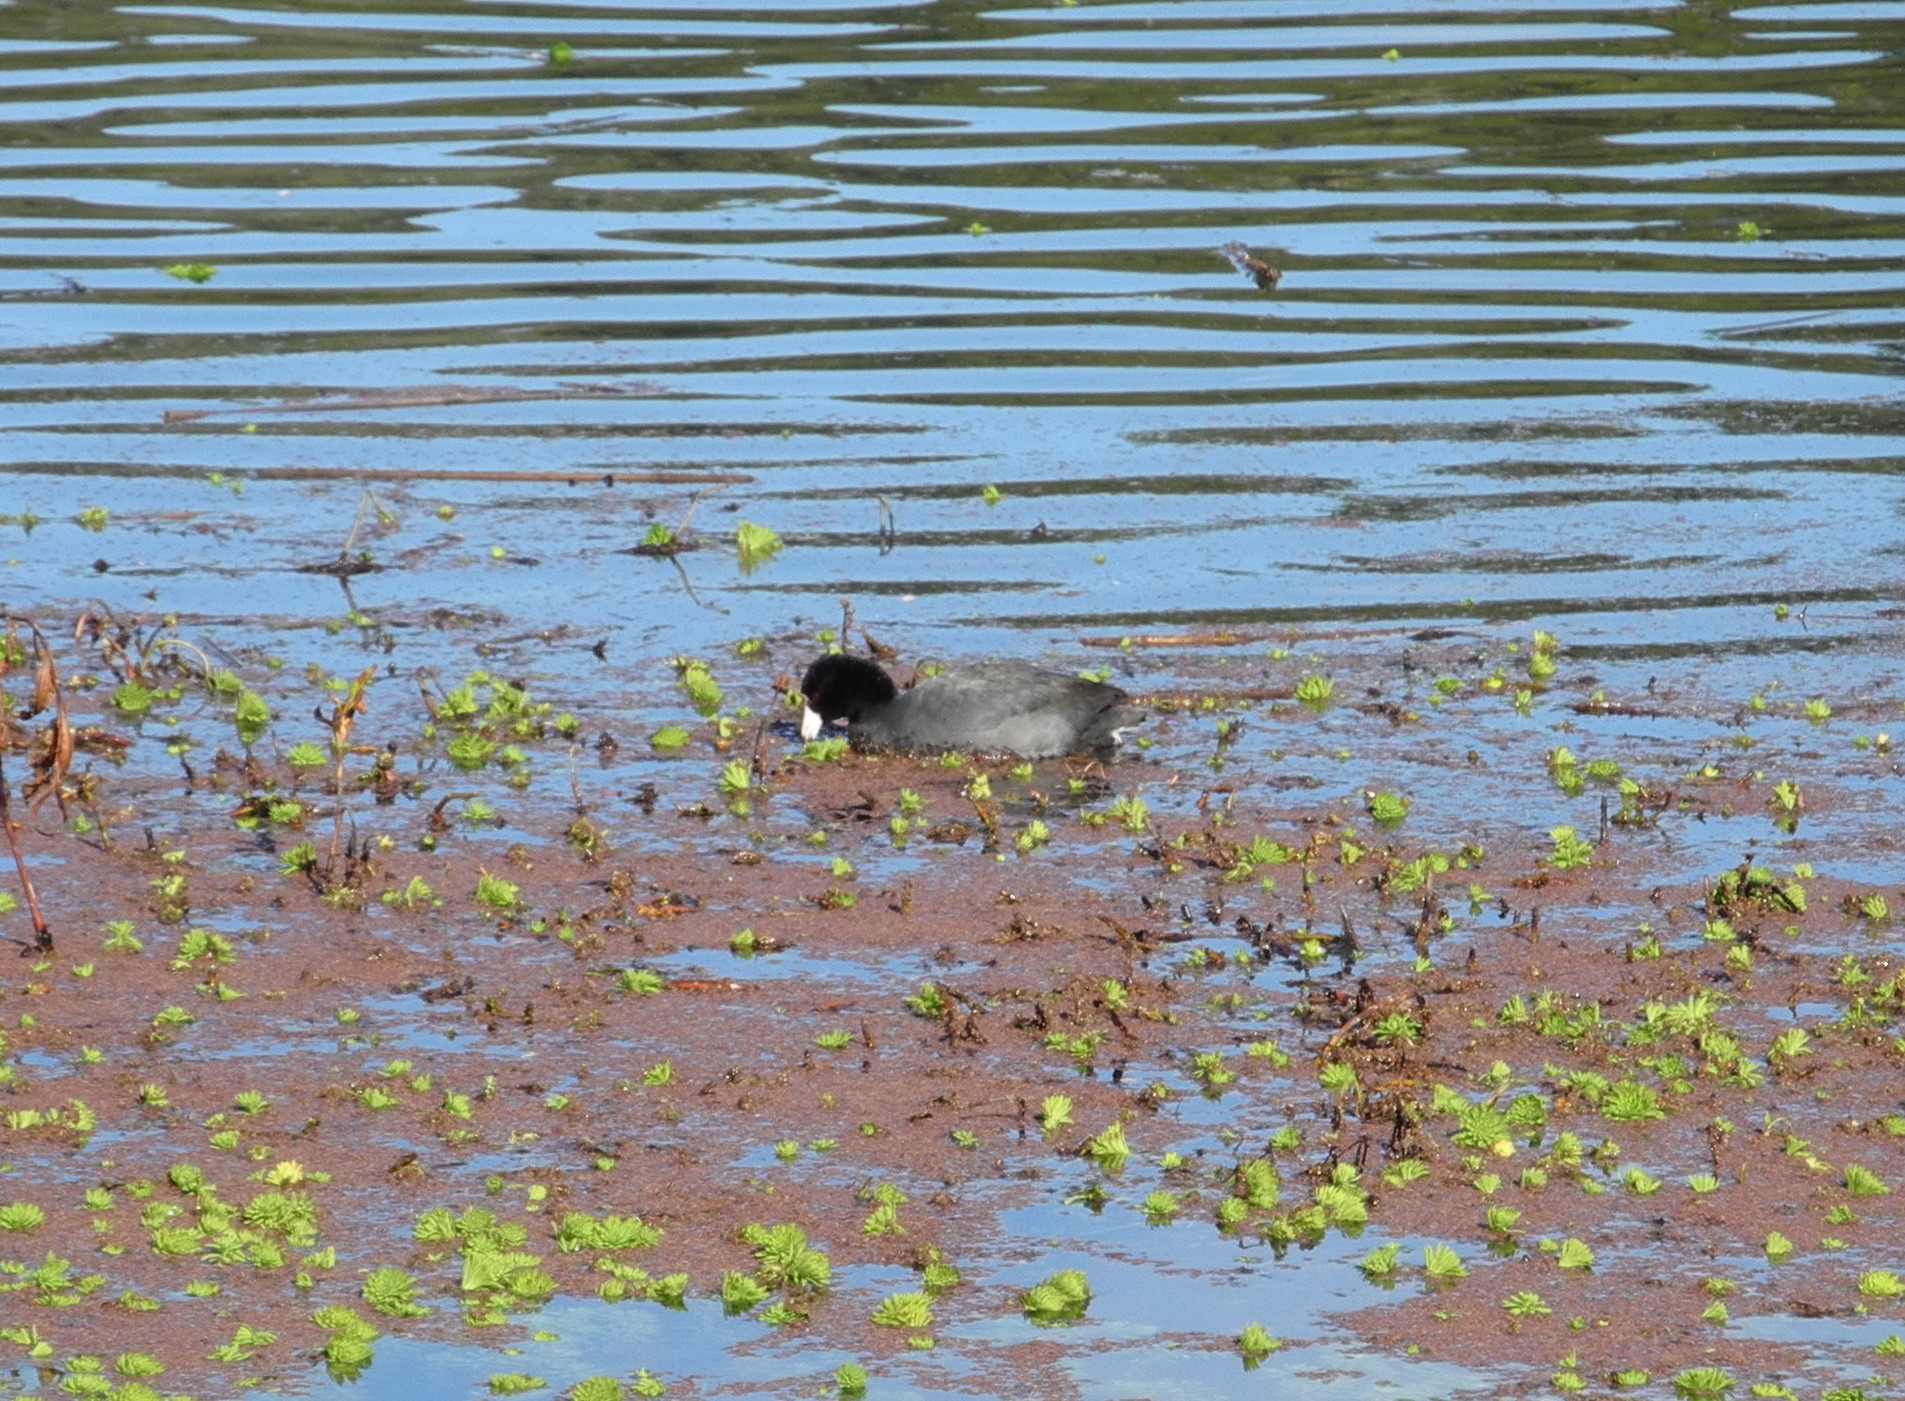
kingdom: Animalia
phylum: Chordata
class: Aves
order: Gruiformes
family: Rallidae
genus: Fulica
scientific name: Fulica americana
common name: American coot
